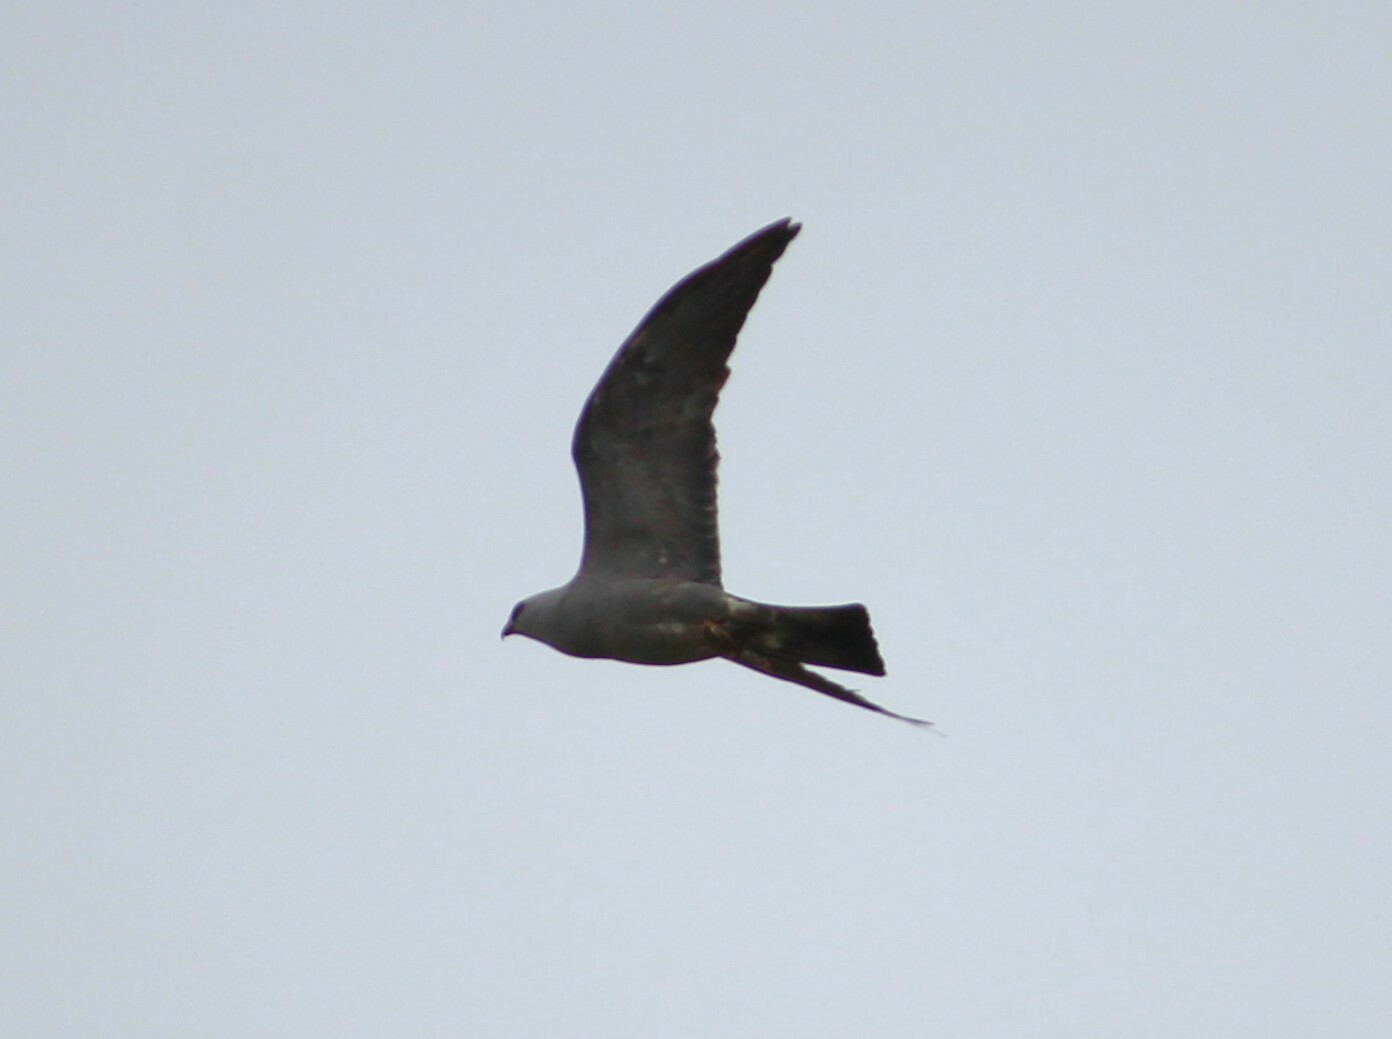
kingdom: Animalia
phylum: Chordata
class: Aves
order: Accipitriformes
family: Accipitridae
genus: Ictinia
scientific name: Ictinia mississippiensis
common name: Mississippi kite
